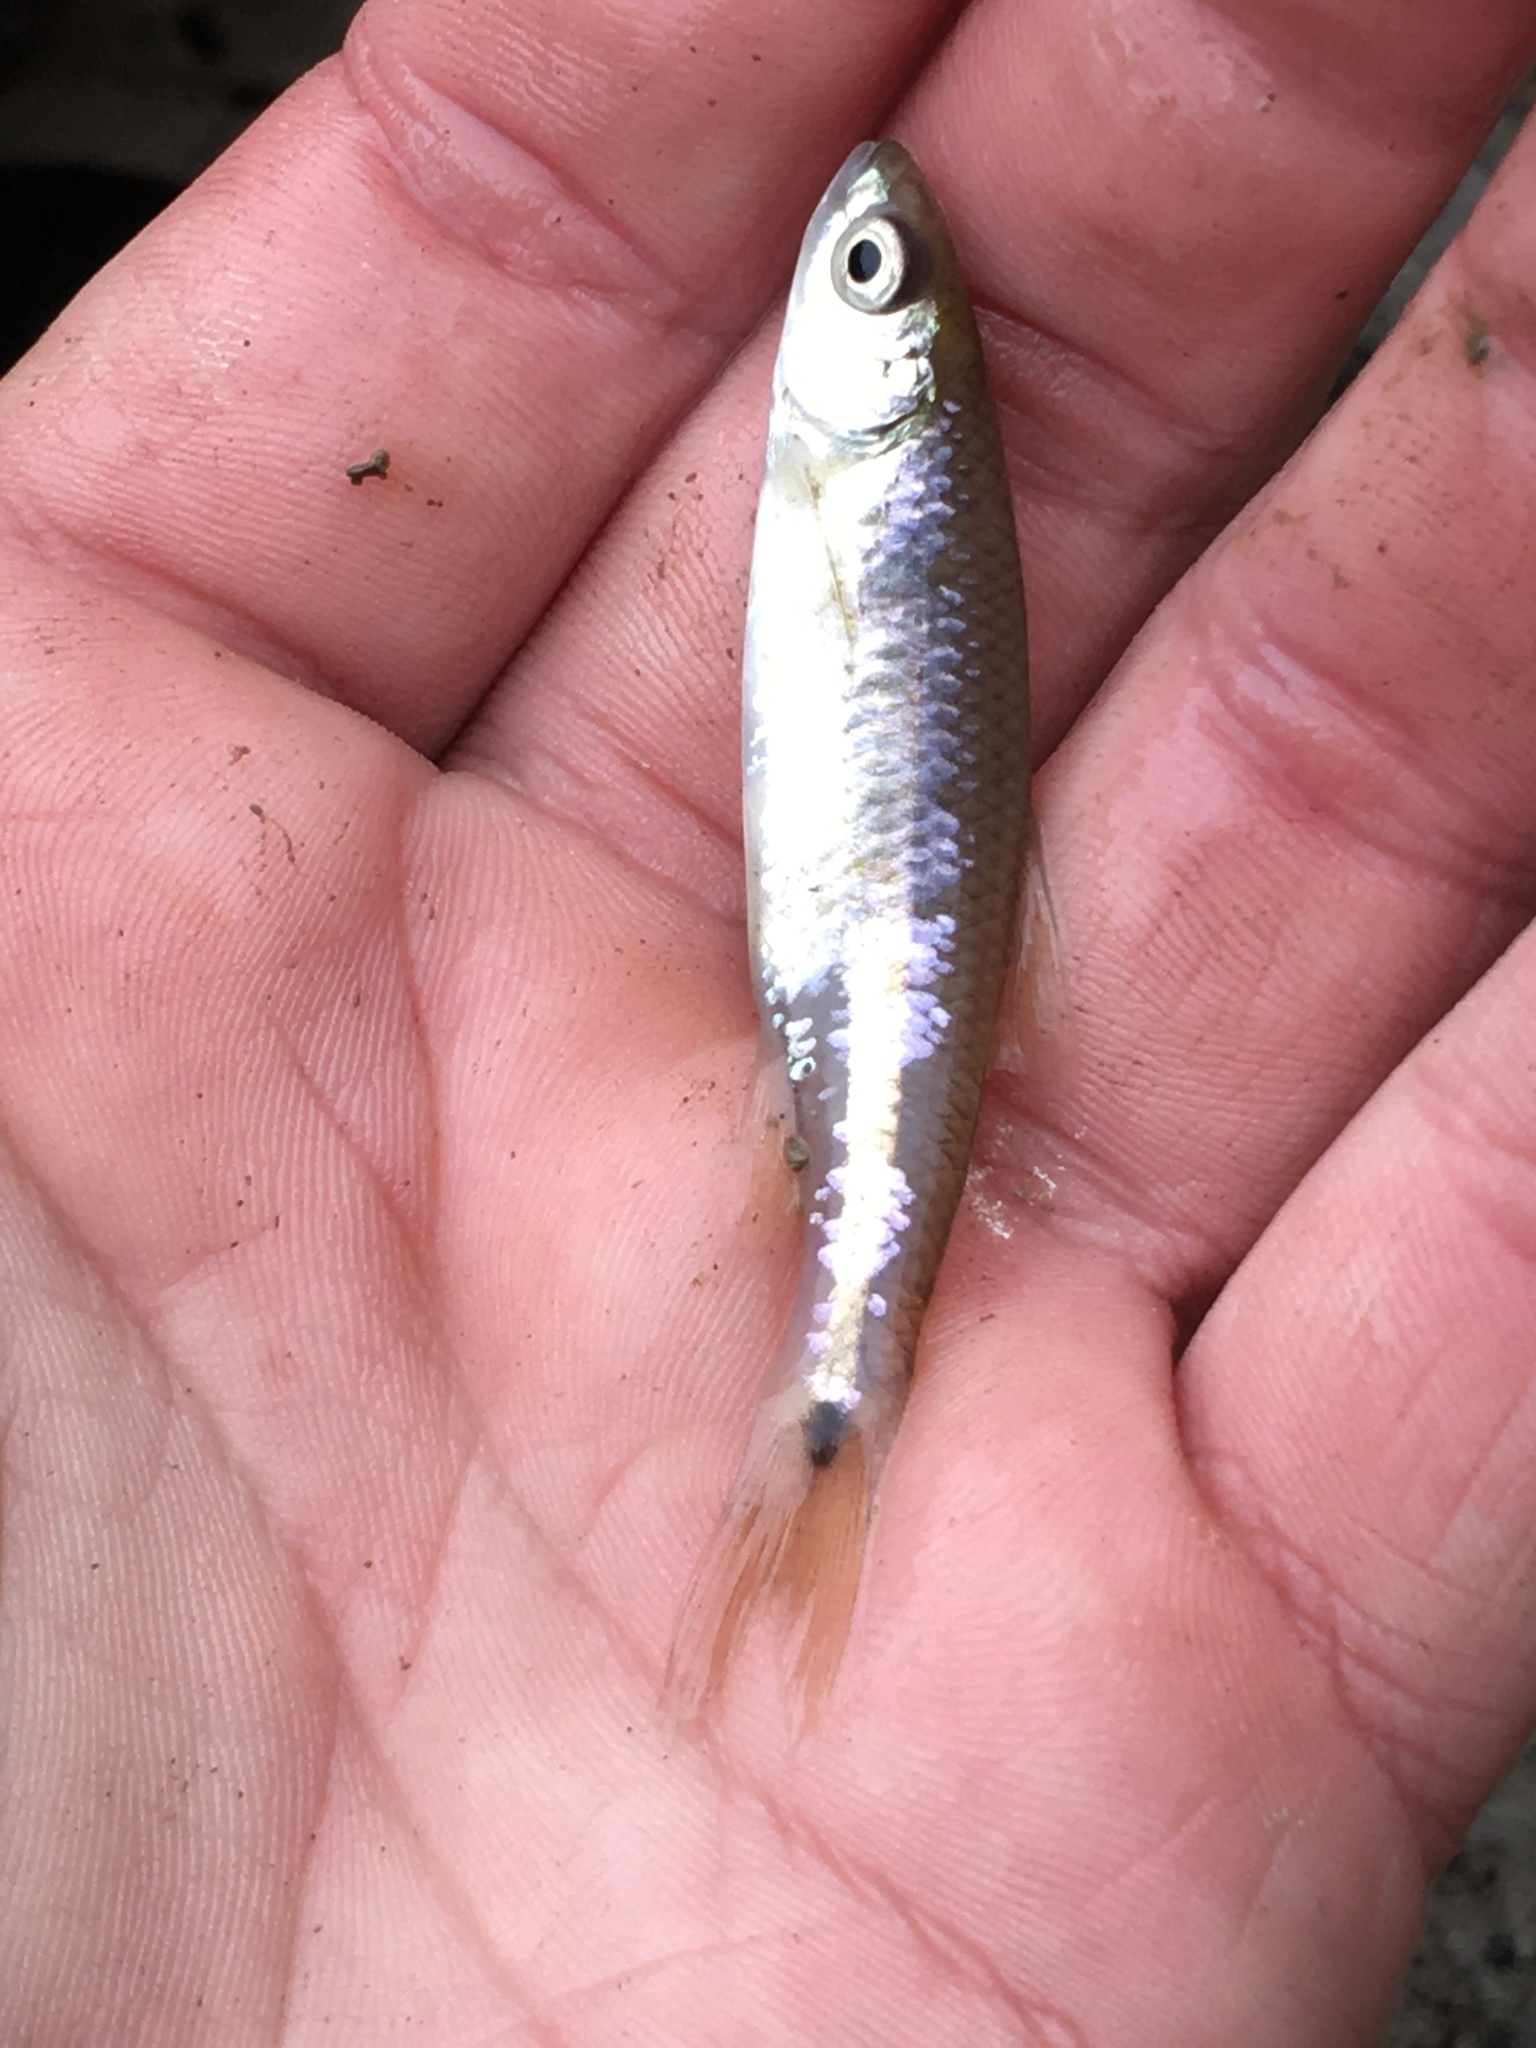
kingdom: Animalia
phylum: Chordata
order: Cypriniformes
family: Cyprinidae
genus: Cyprinella
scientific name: Cyprinella venusta
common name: Blacktail shiner
